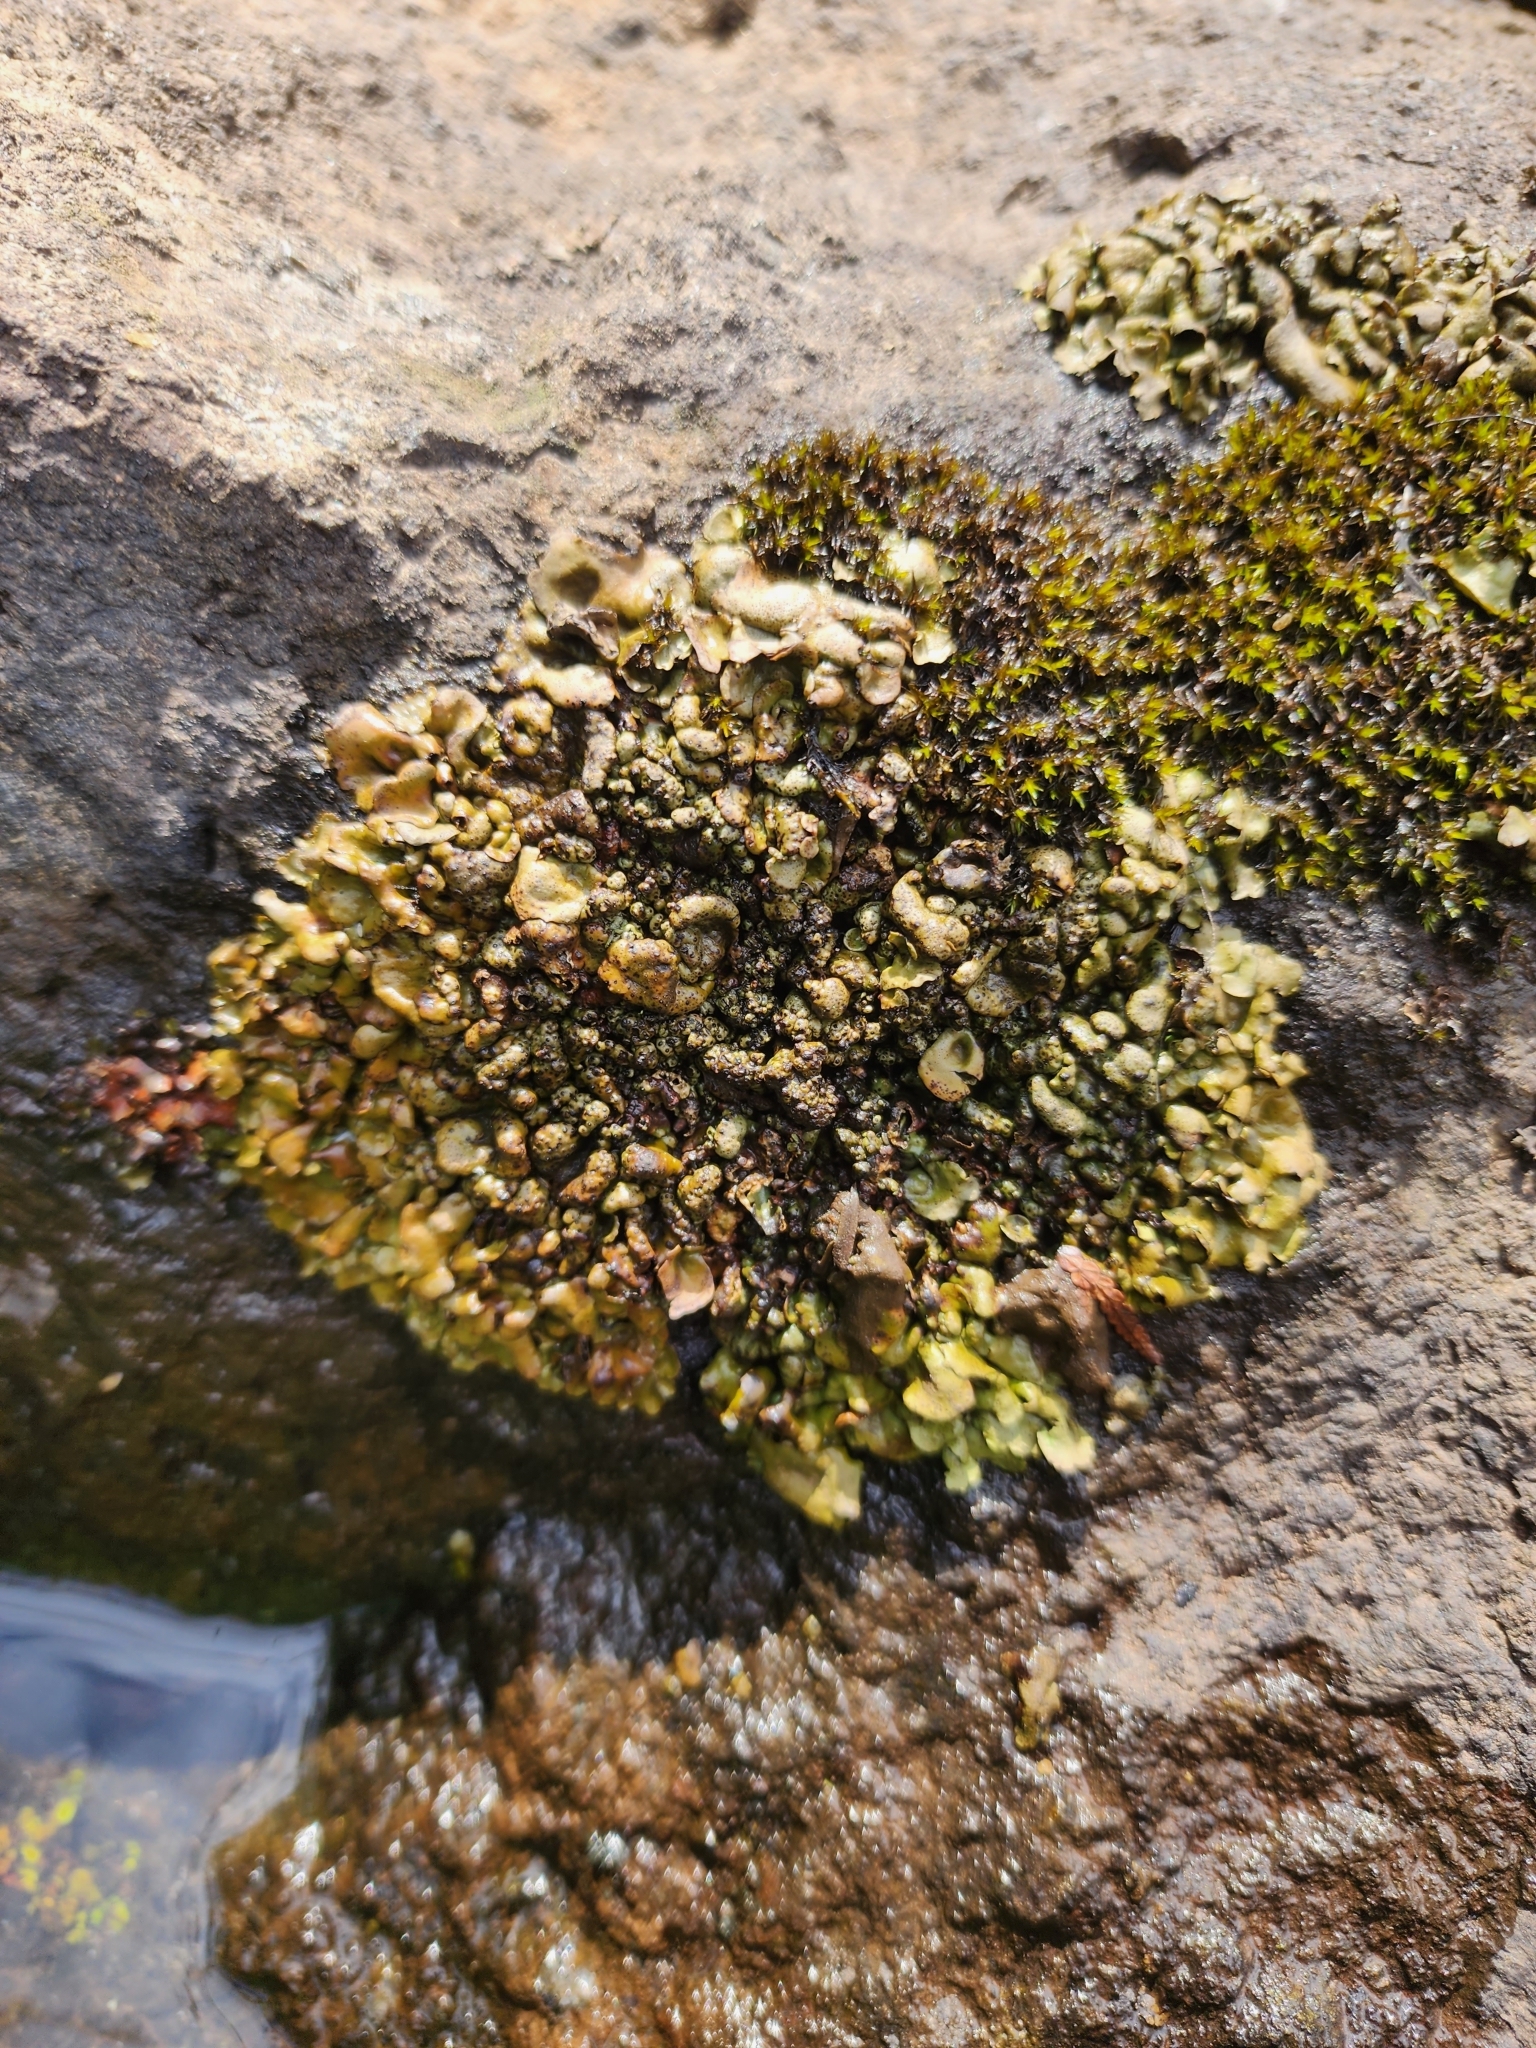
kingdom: Fungi
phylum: Ascomycota
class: Eurotiomycetes
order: Verrucariales
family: Verrucariaceae
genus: Dermatocarpon
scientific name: Dermatocarpon luridum
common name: Brook stippleback lichen
